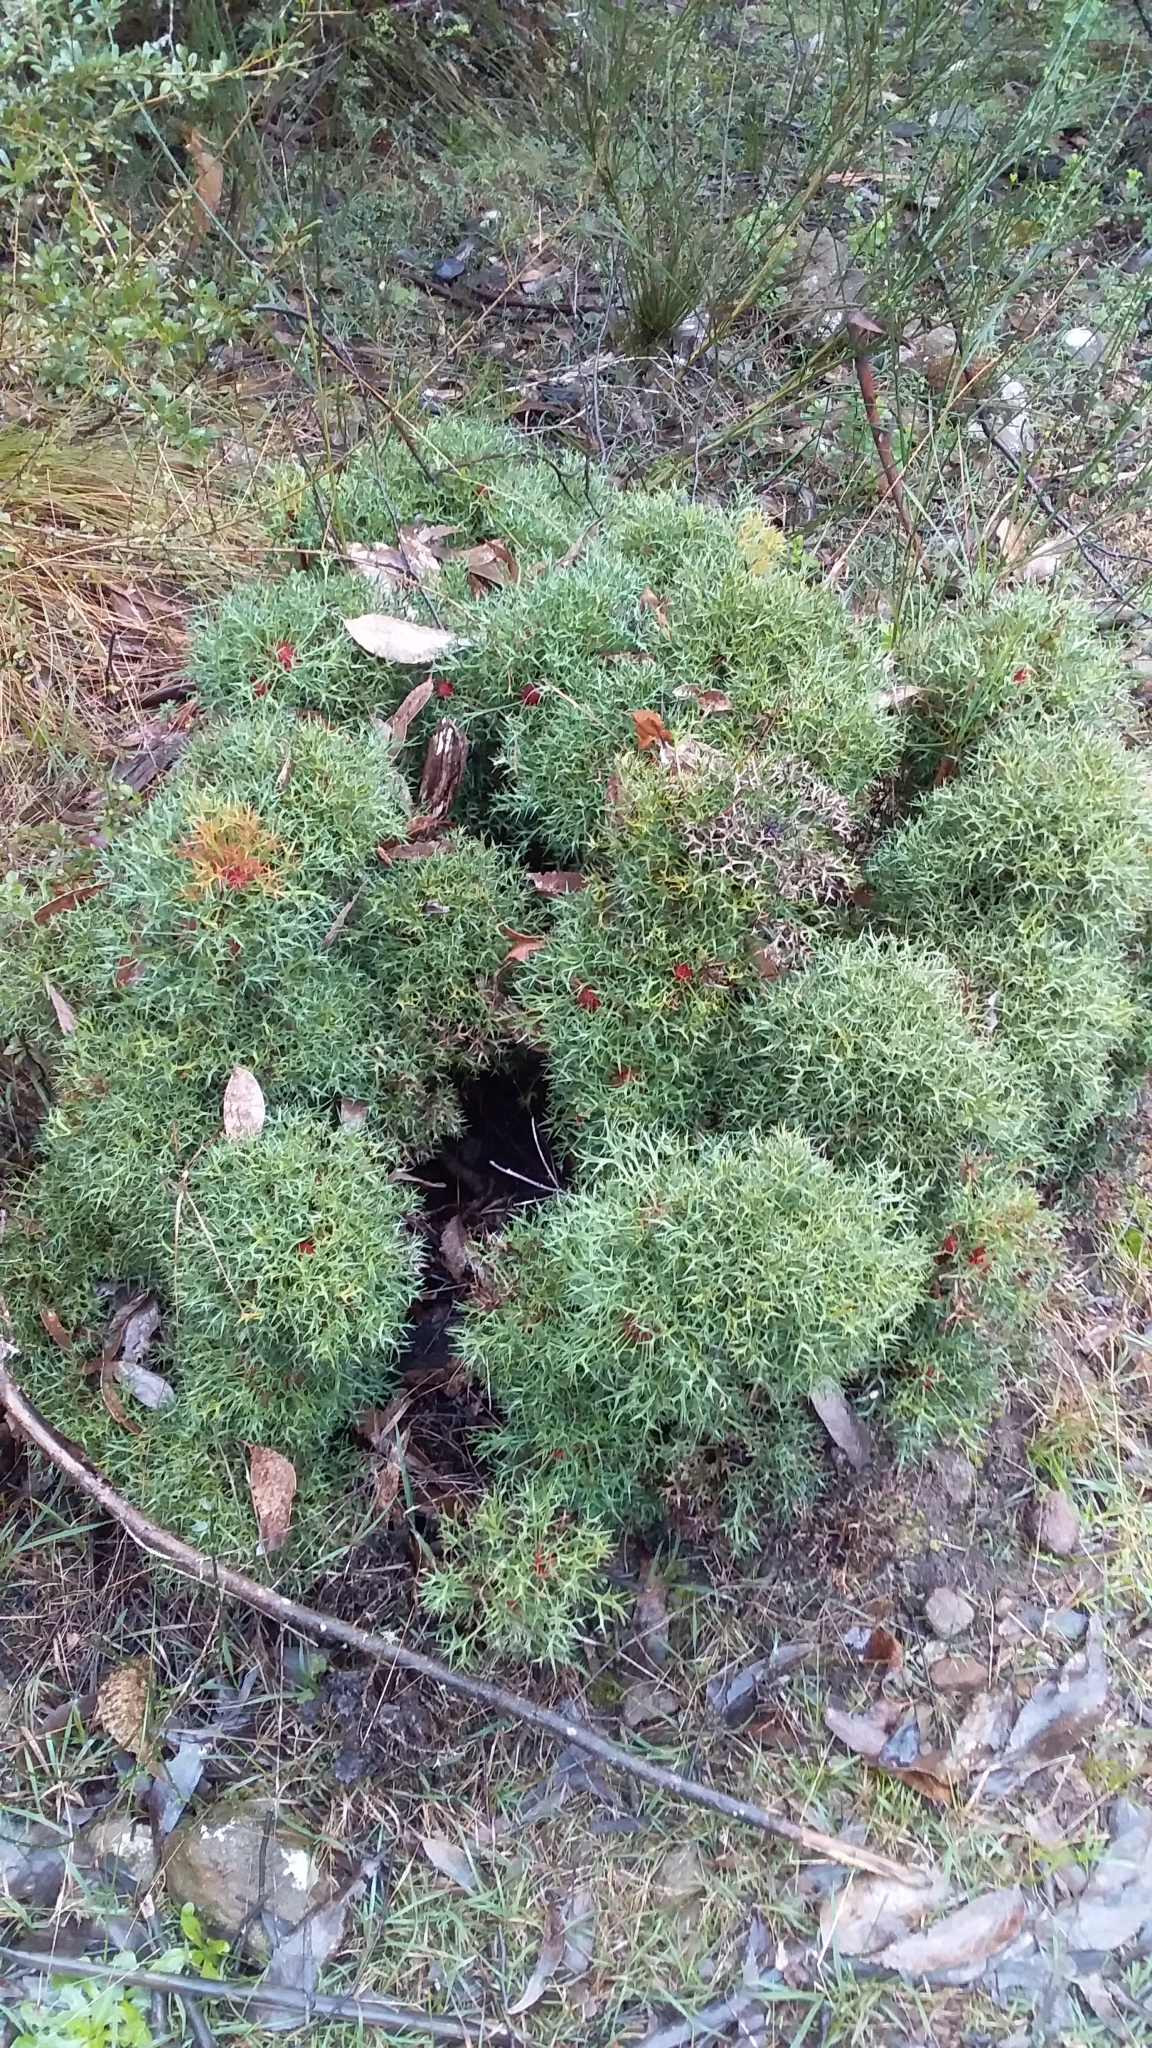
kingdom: Plantae
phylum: Tracheophyta
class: Magnoliopsida
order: Proteales
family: Proteaceae
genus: Isopogon
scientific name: Isopogon ceratophyllus
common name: Horny cone-bush
